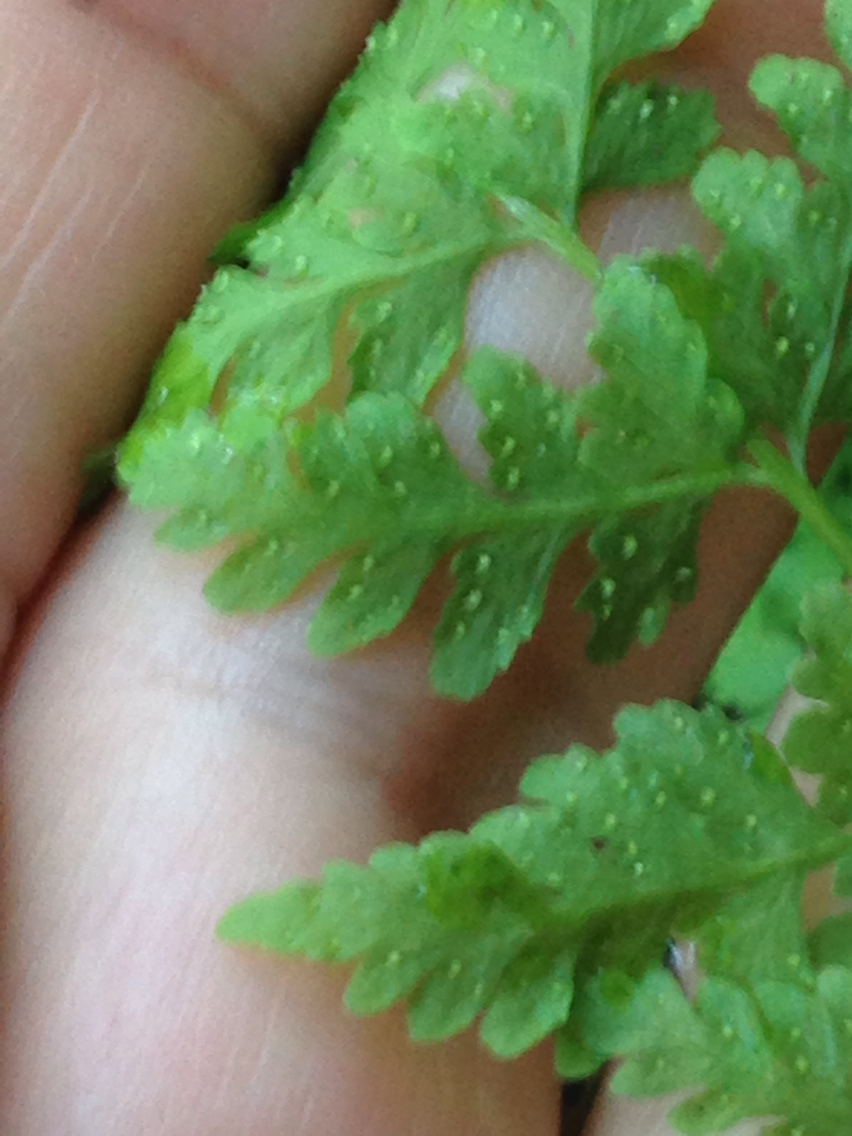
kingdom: Plantae
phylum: Tracheophyta
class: Polypodiopsida
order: Polypodiales
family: Cystopteridaceae
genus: Cystopteris
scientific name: Cystopteris fragilis
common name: Brittle bladder fern
